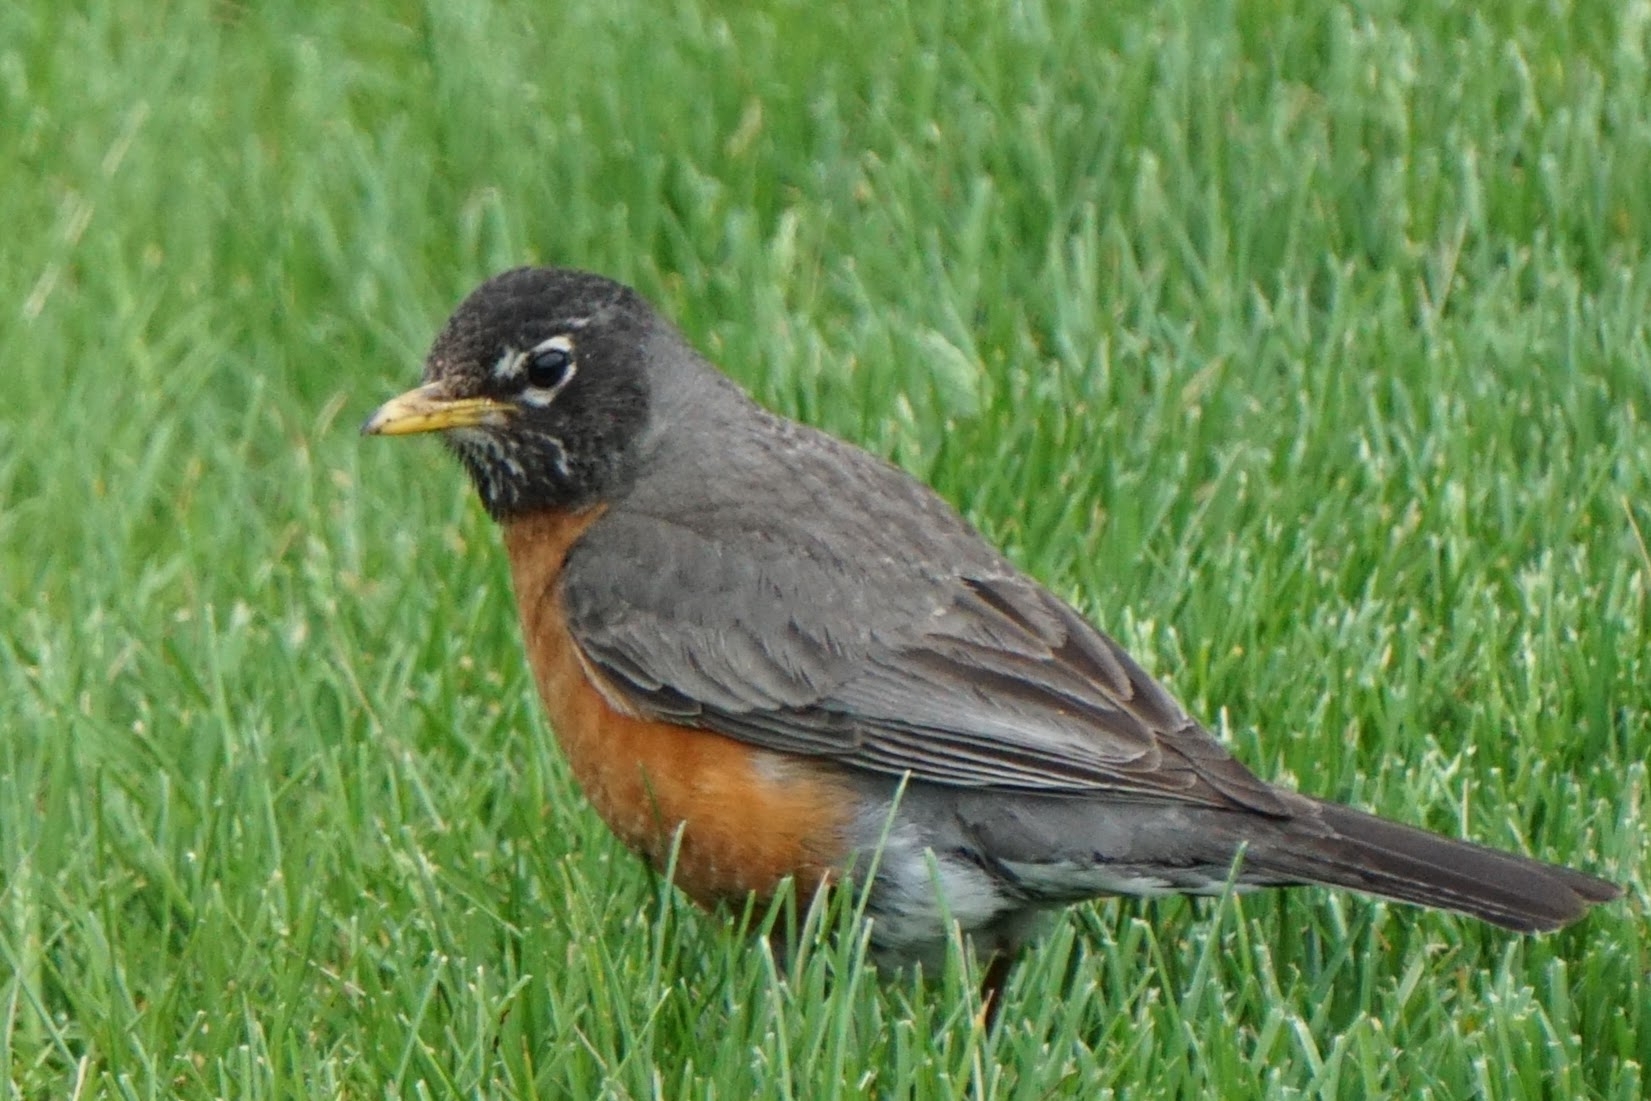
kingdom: Animalia
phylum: Chordata
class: Aves
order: Passeriformes
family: Turdidae
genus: Turdus
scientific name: Turdus migratorius
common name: American robin
